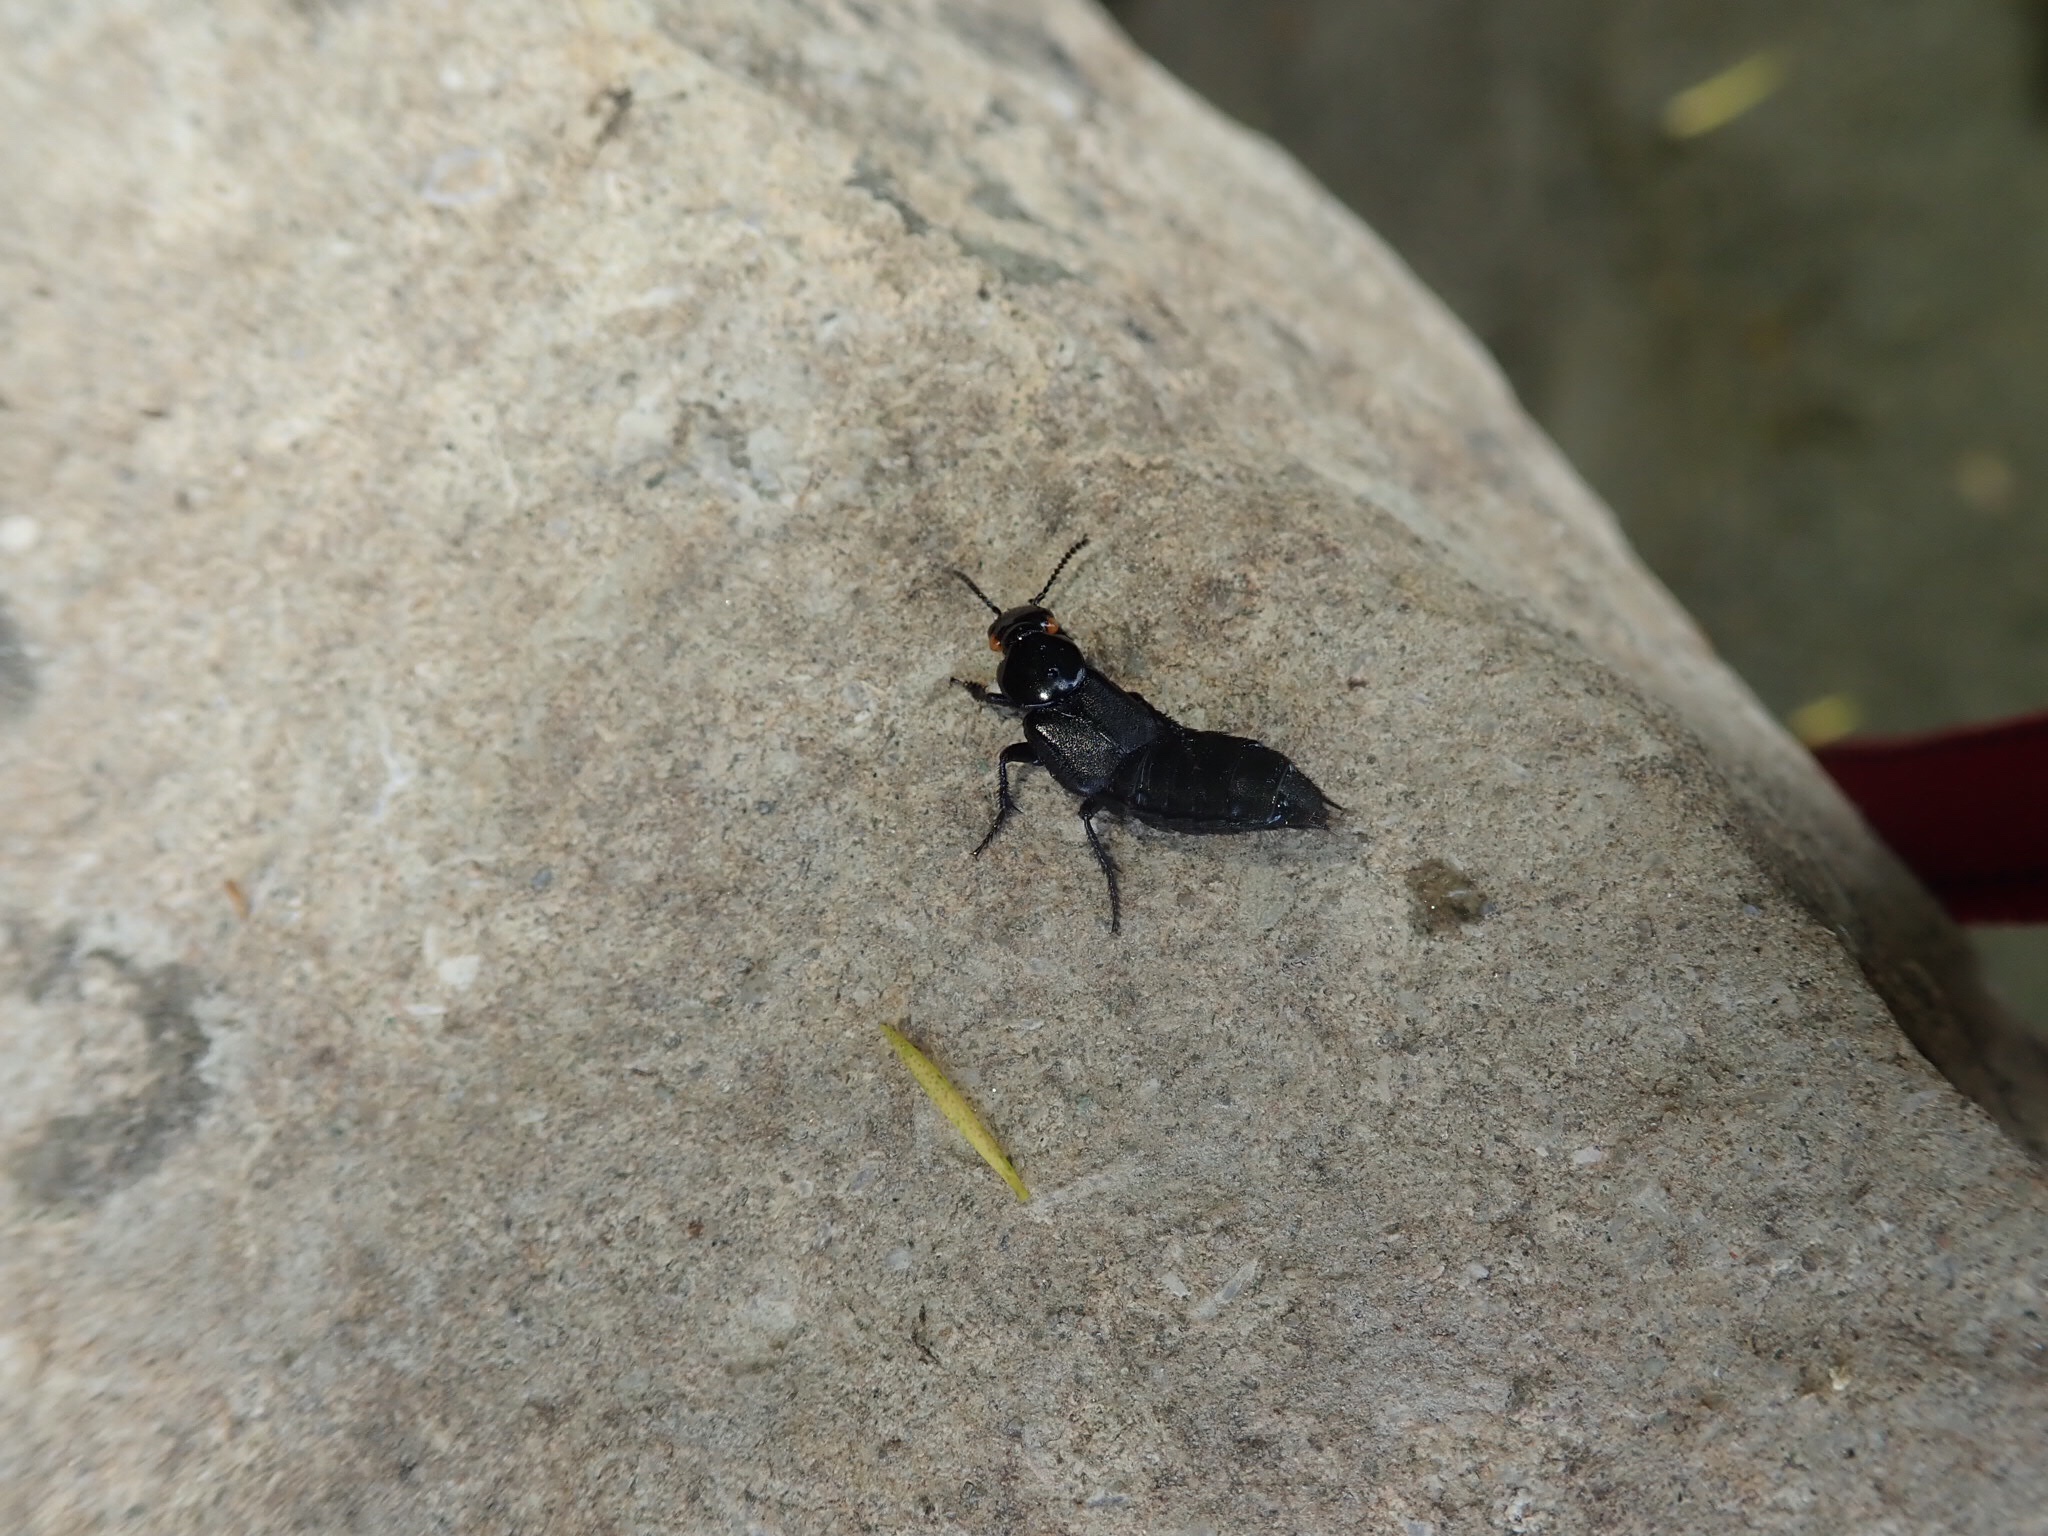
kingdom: Animalia
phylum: Arthropoda
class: Insecta
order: Coleoptera
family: Staphylinidae
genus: Creophilus
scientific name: Creophilus oculatus
